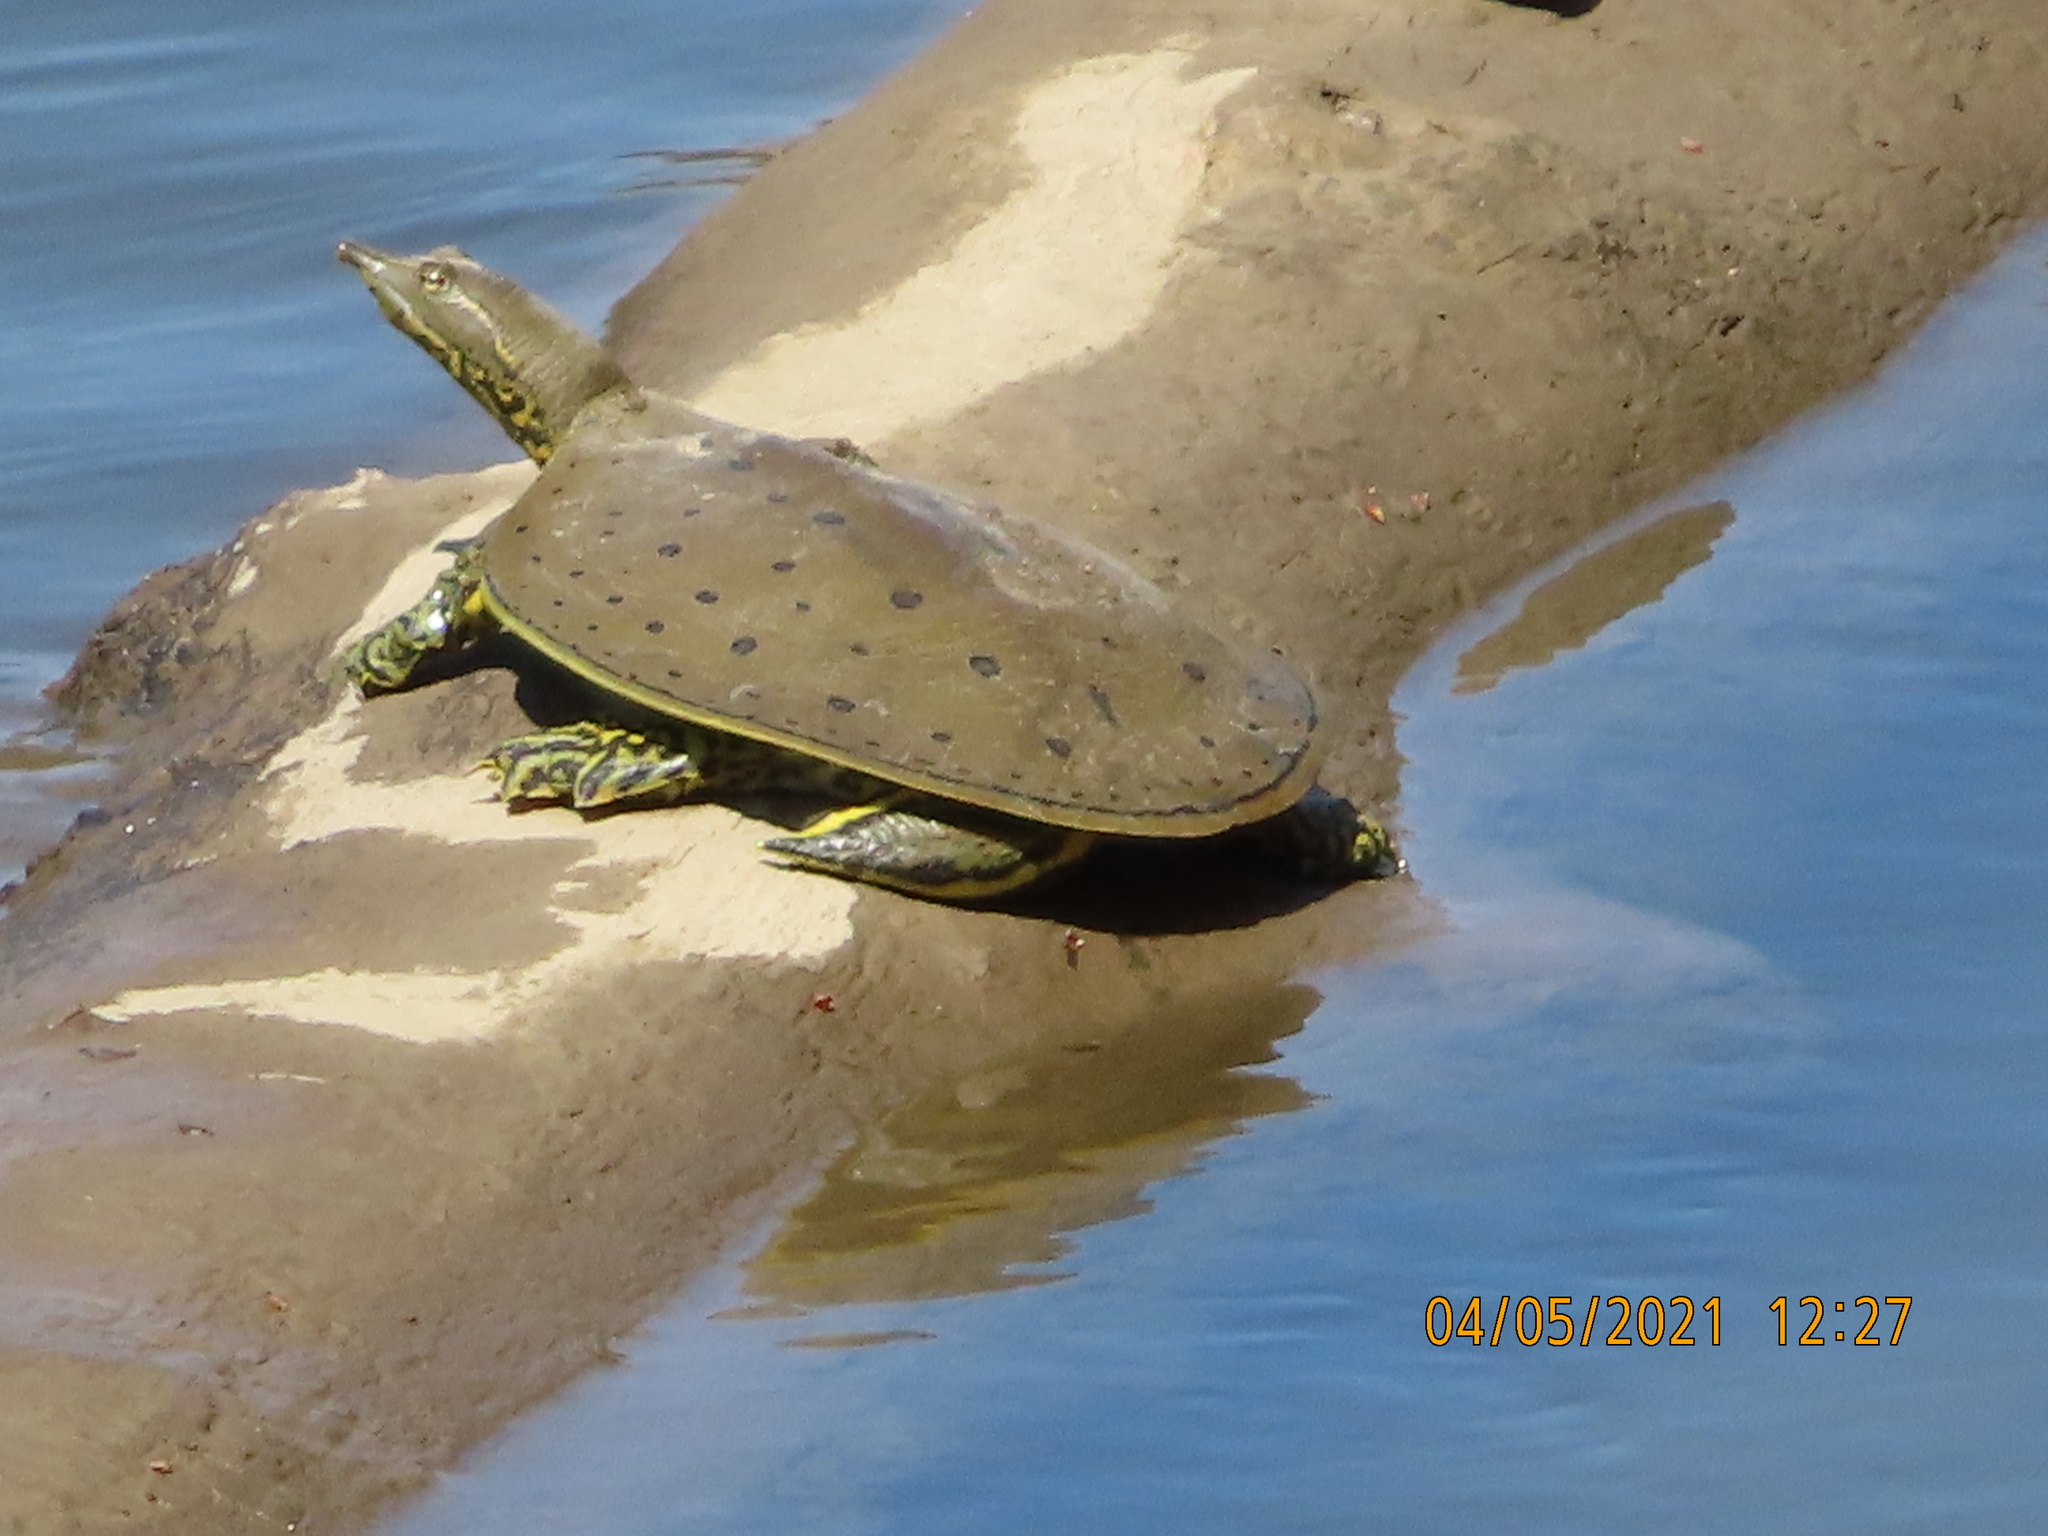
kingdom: Animalia
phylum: Chordata
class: Testudines
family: Trionychidae
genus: Apalone
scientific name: Apalone spinifera
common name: Spiny softshell turtle
